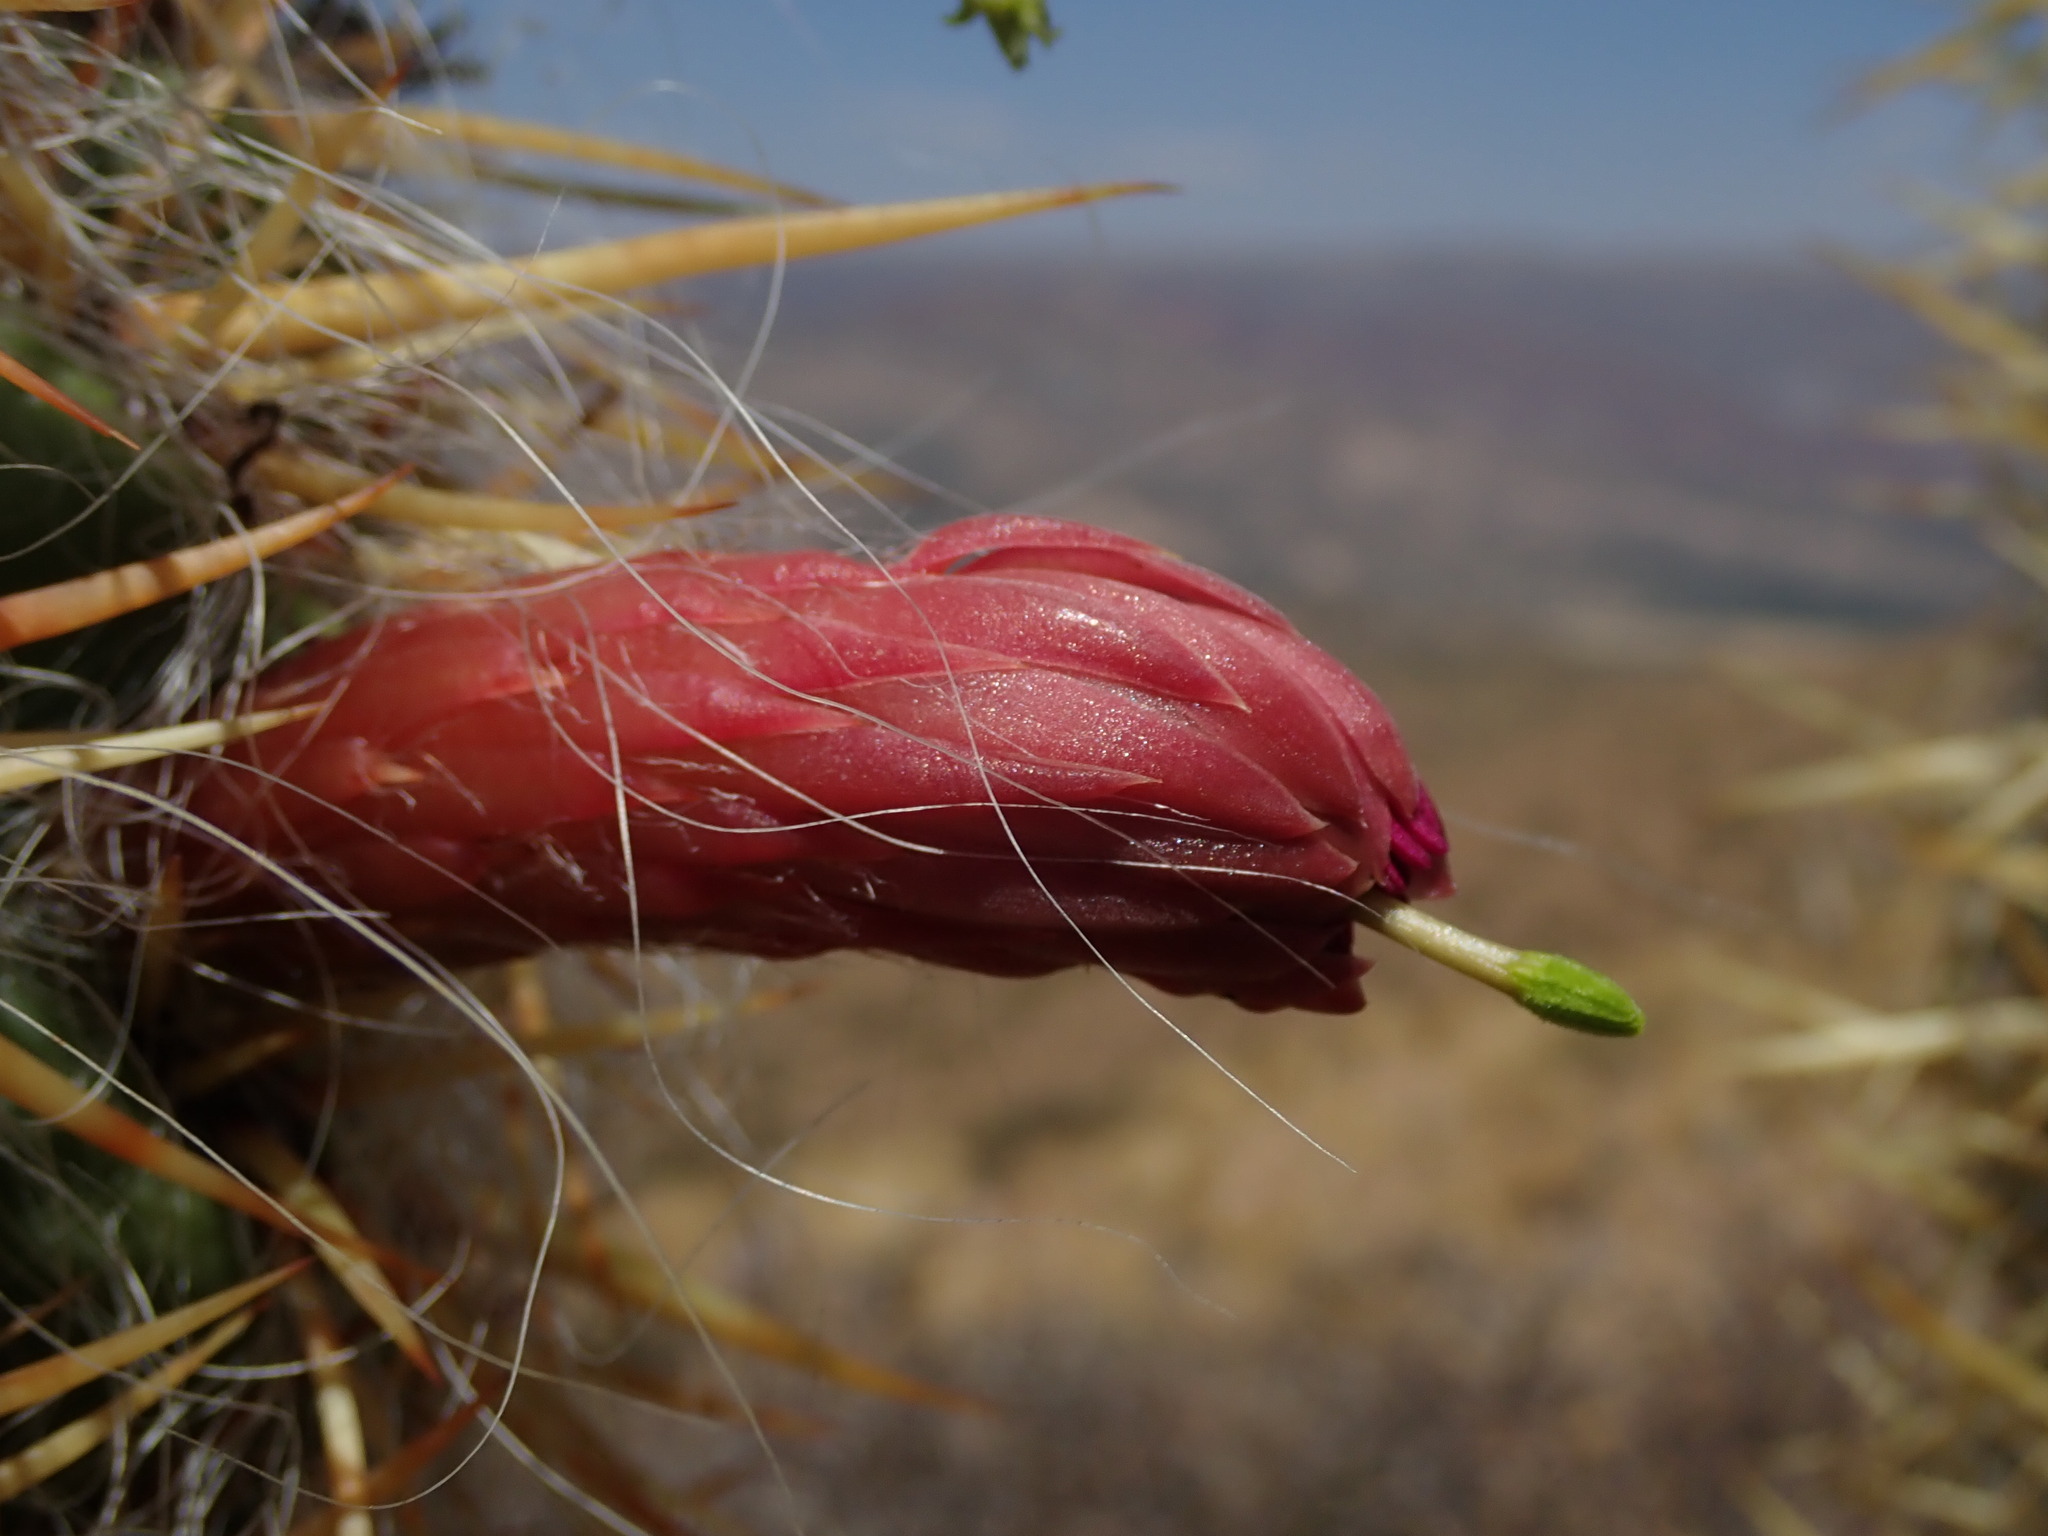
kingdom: Plantae
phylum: Tracheophyta
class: Magnoliopsida
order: Caryophyllales
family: Cactaceae
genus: Oreocereus
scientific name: Oreocereus celsianus
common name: Old-man-of-the-andes
